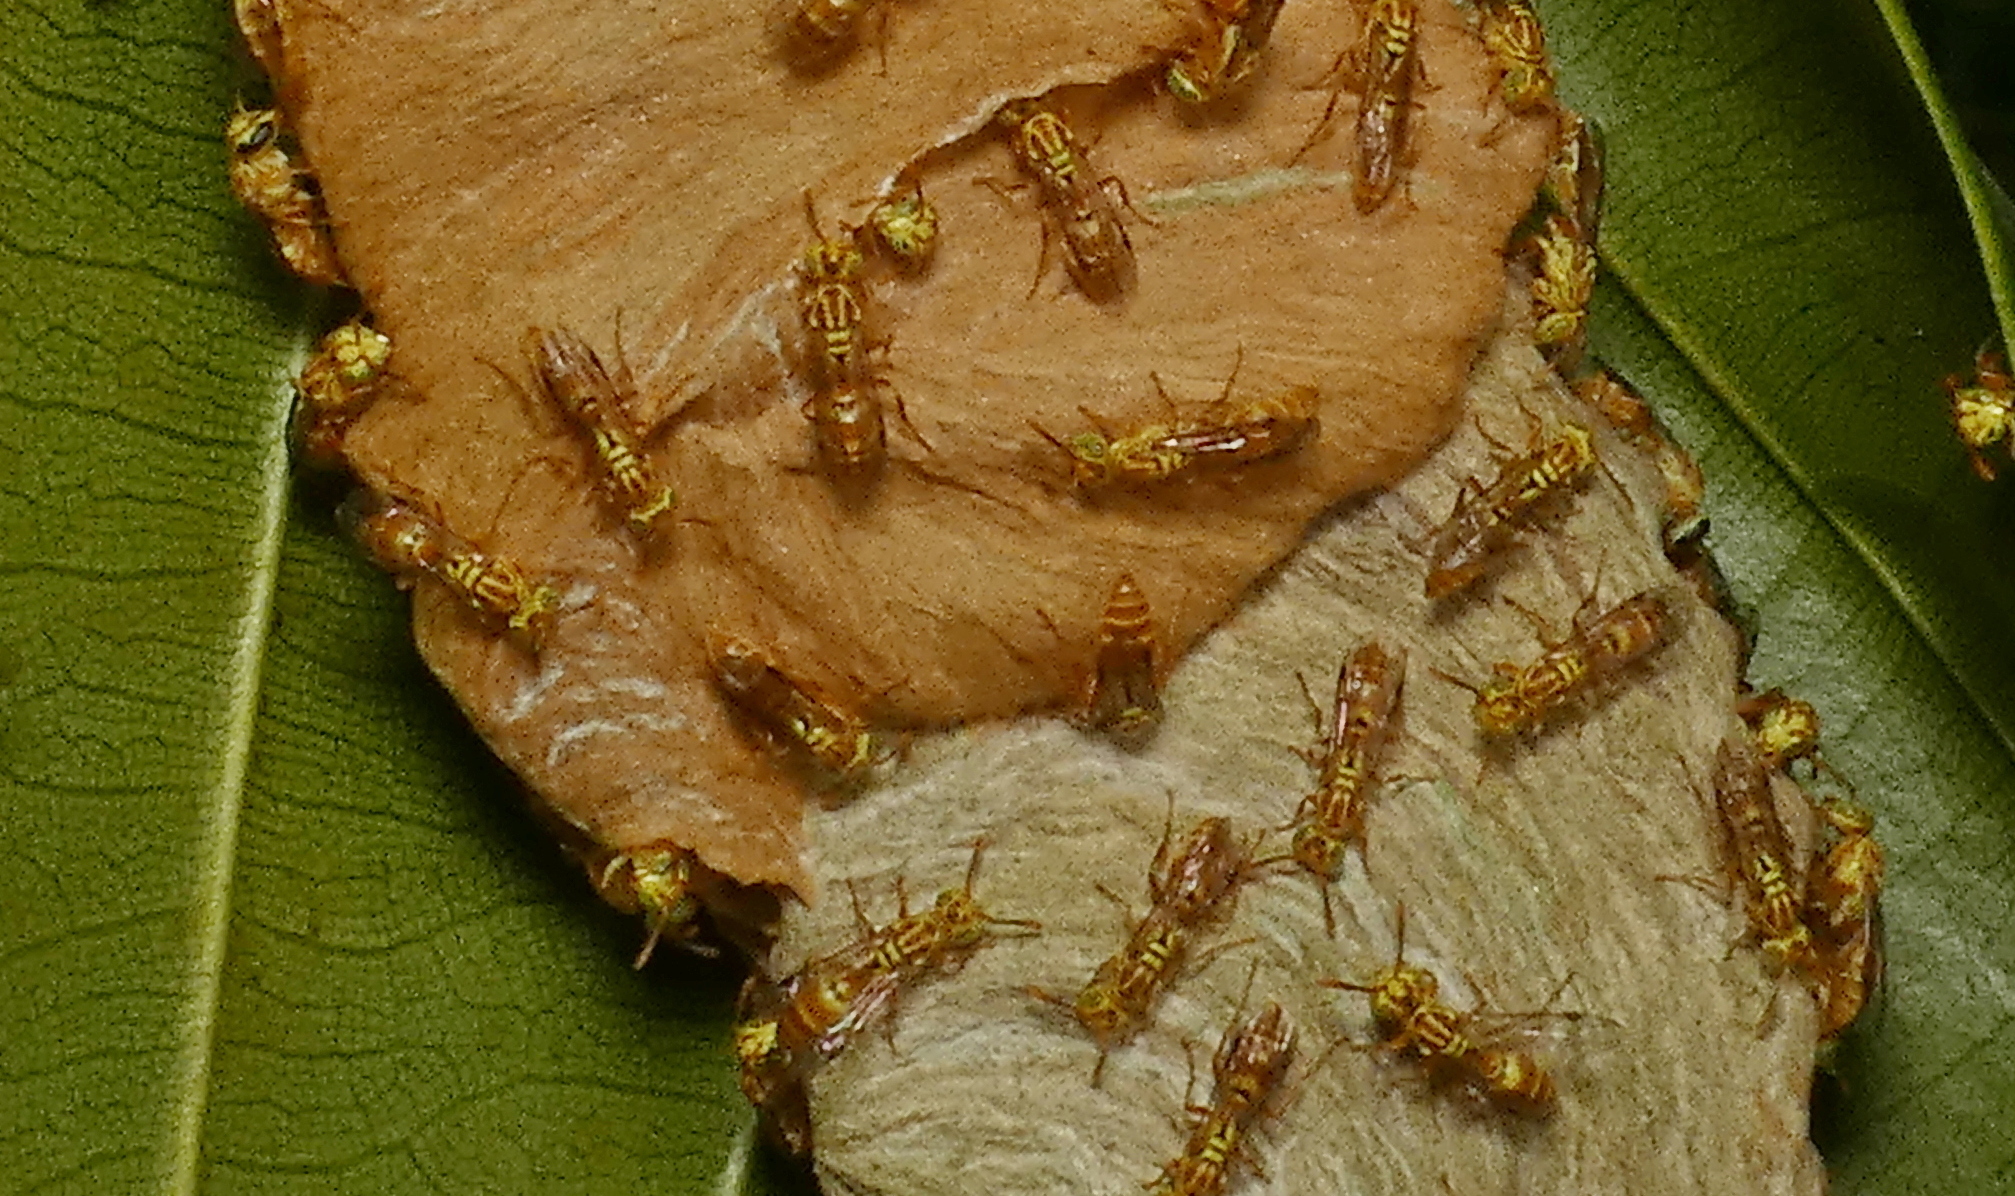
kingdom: Animalia
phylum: Arthropoda
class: Insecta
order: Hymenoptera
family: Vespidae
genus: Protopolybia
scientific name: Protopolybia potiguara
